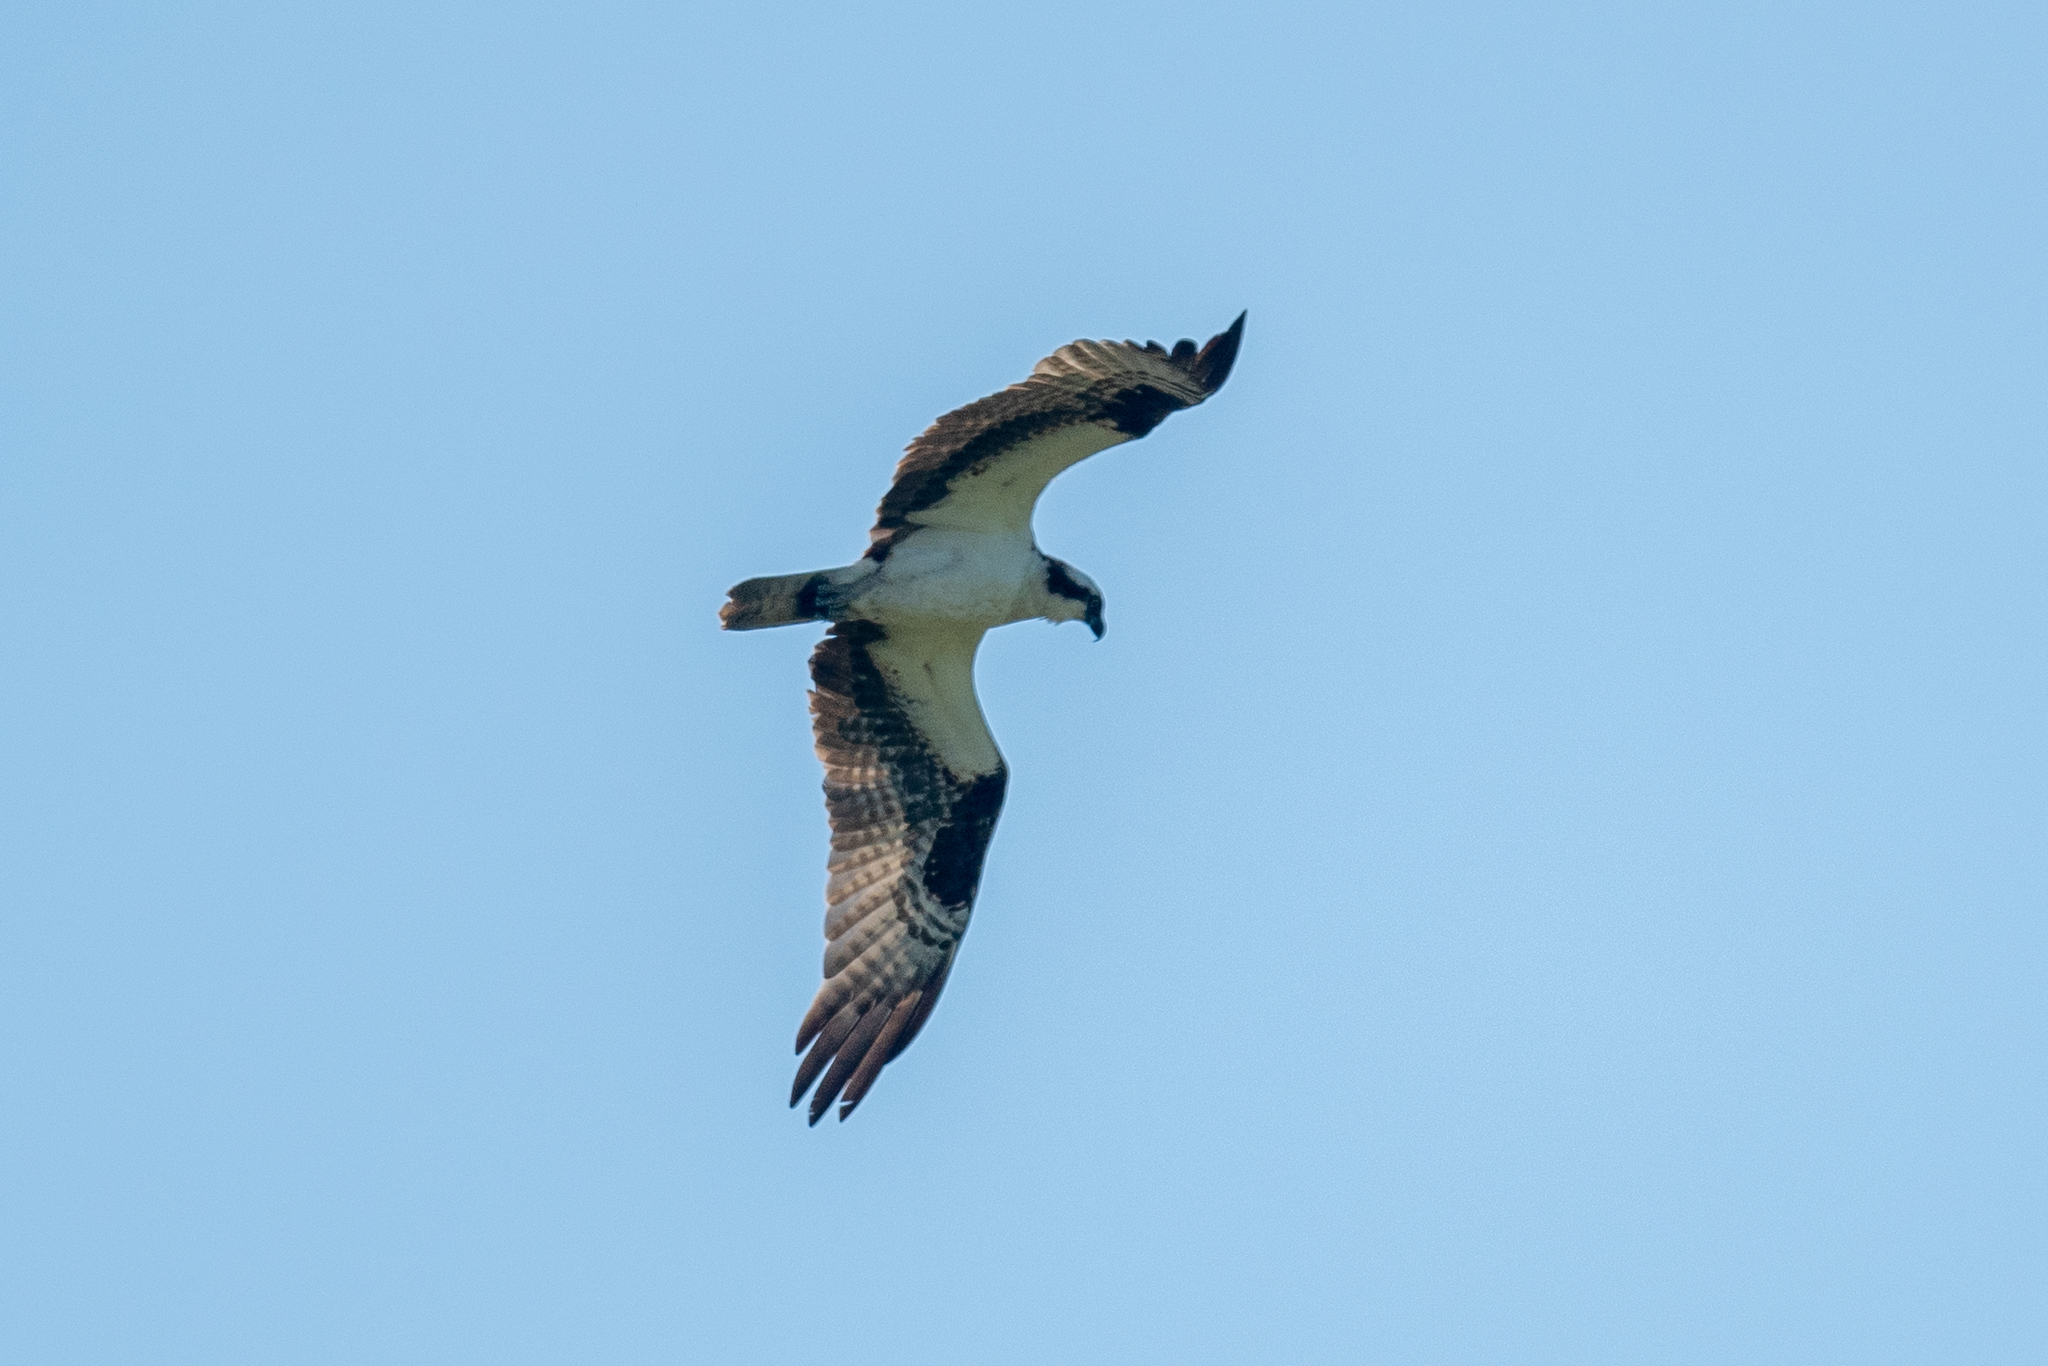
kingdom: Animalia
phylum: Chordata
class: Aves
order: Accipitriformes
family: Pandionidae
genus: Pandion
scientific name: Pandion haliaetus
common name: Osprey
